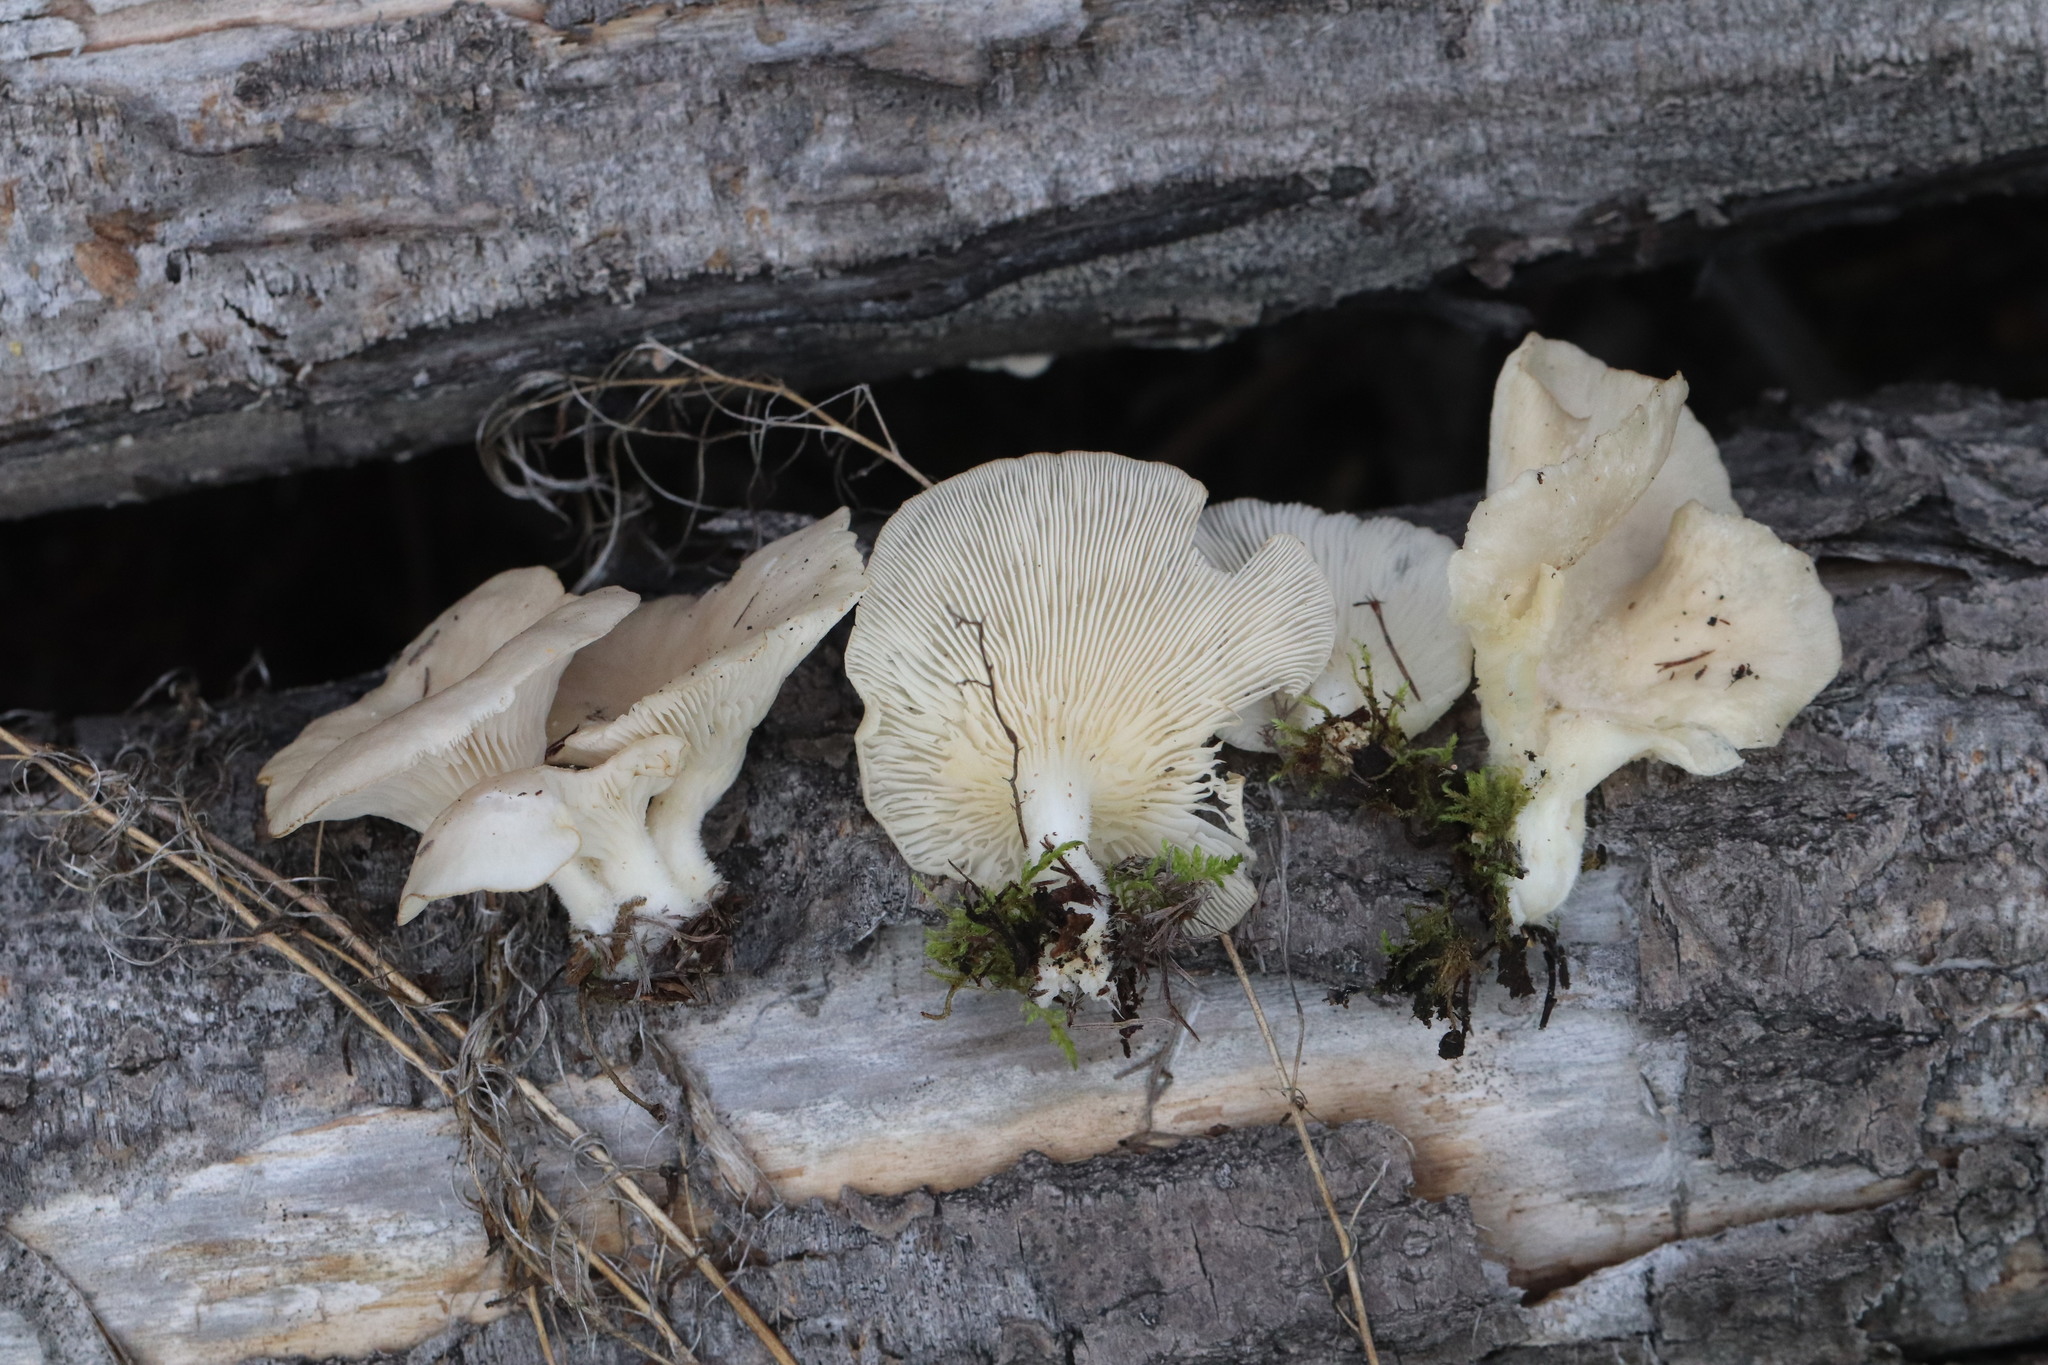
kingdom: Fungi
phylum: Basidiomycota
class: Agaricomycetes
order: Agaricales
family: Pleurotaceae
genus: Pleurotus
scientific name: Pleurotus pulmonarius
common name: Pale oyster
